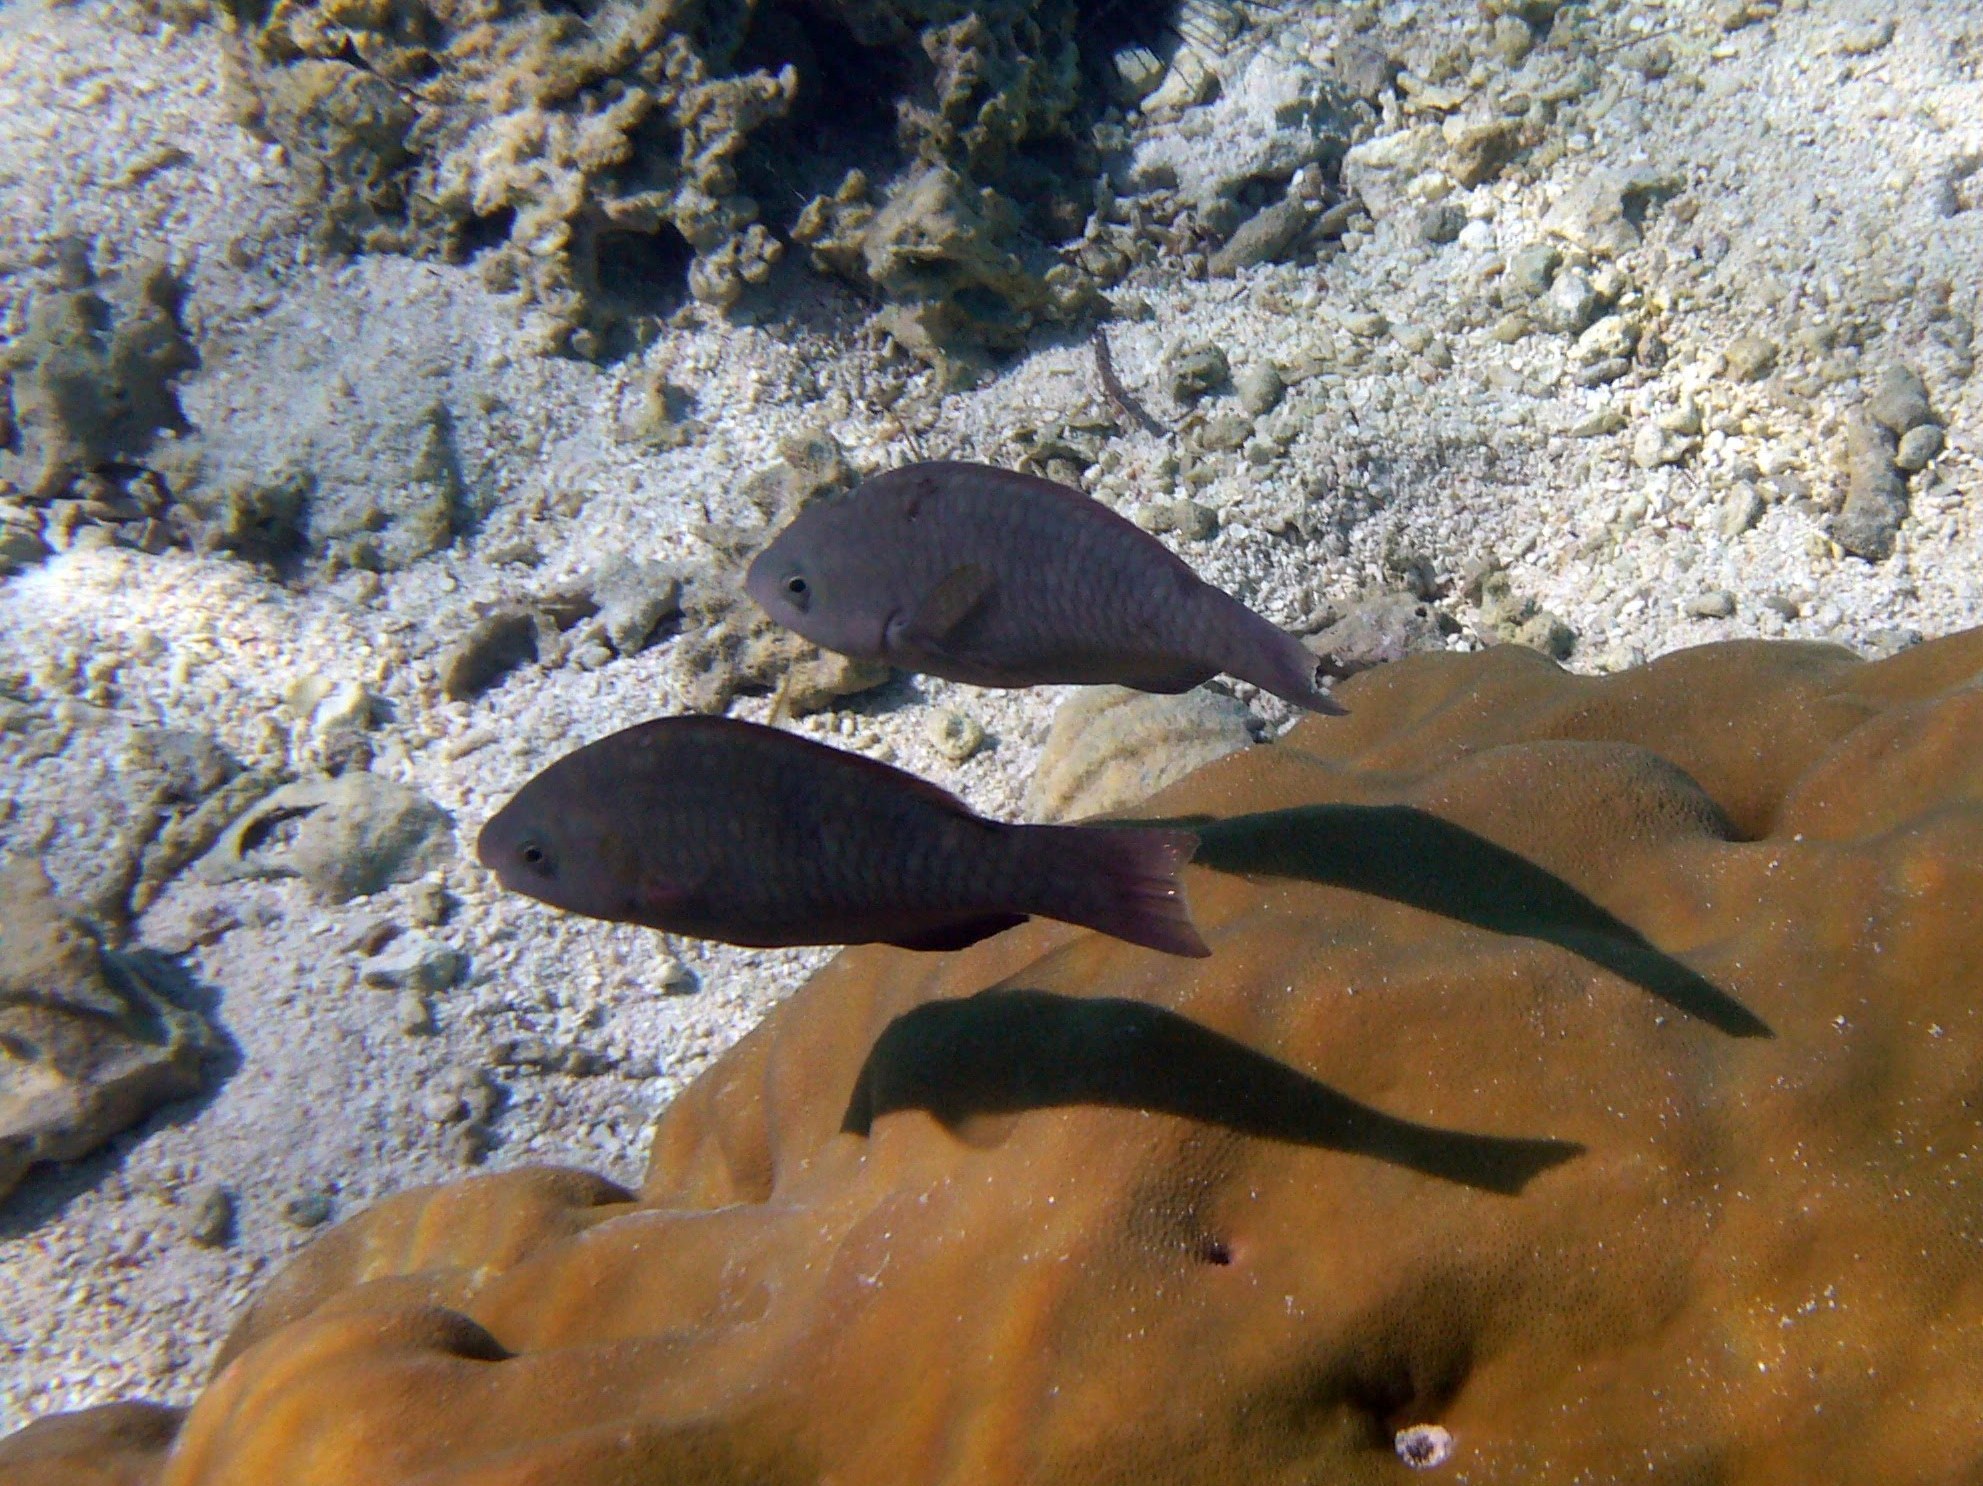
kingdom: Animalia
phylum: Chordata
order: Perciformes
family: Scaridae
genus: Scarus
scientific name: Scarus psittacus
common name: Palenose parrotfish
